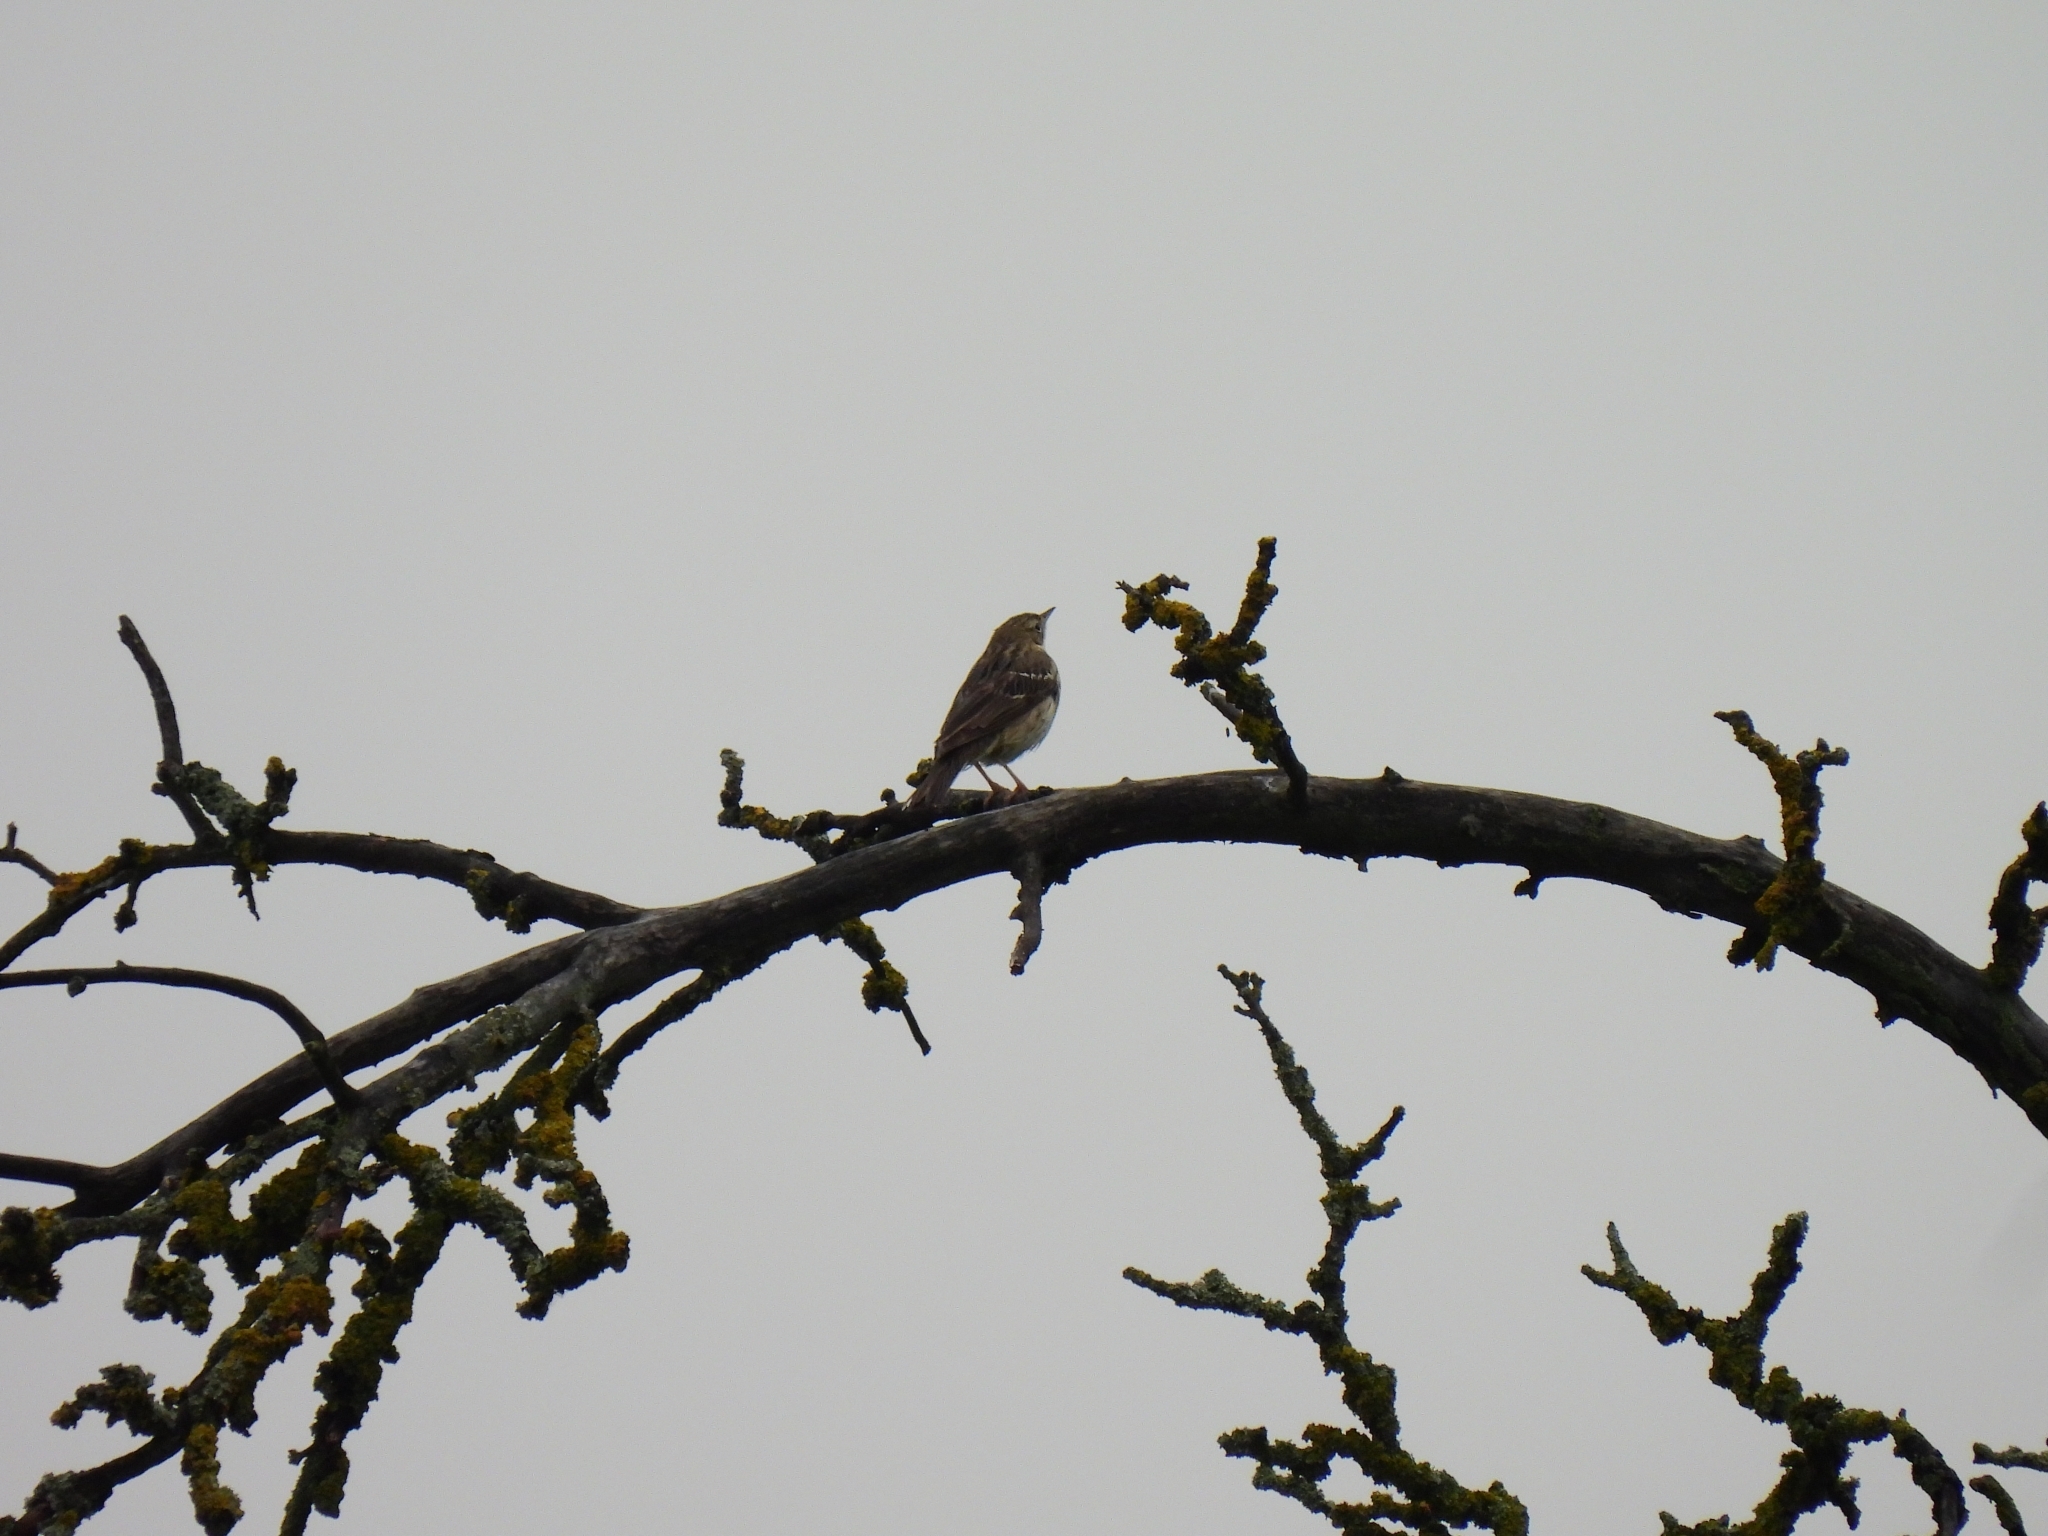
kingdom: Animalia
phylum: Chordata
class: Aves
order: Passeriformes
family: Motacillidae
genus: Anthus
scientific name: Anthus trivialis
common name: Tree pipit
